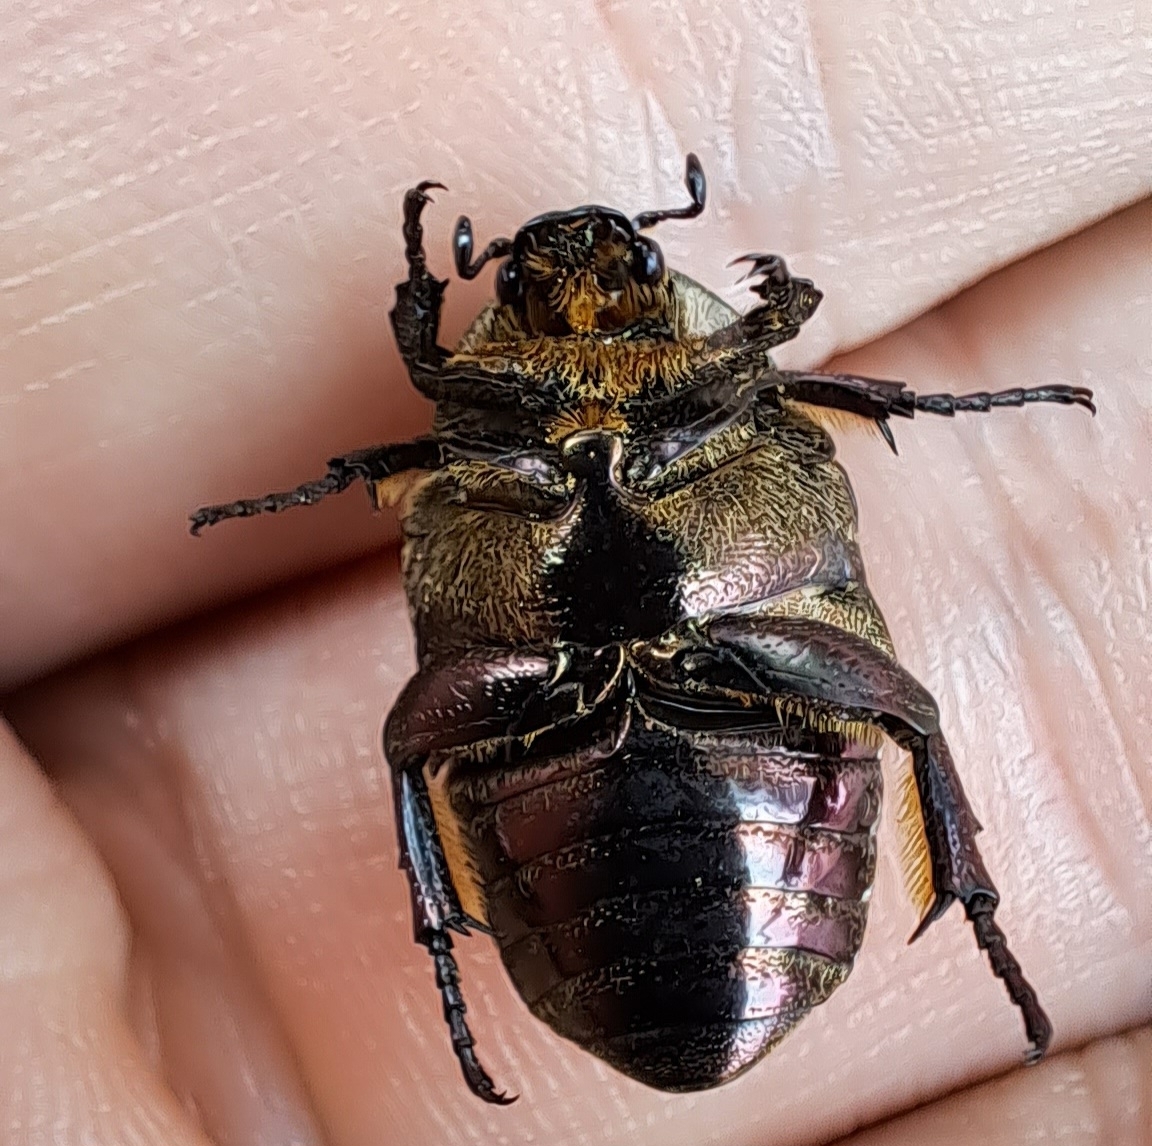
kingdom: Animalia
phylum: Arthropoda
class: Insecta
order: Coleoptera
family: Scarabaeidae
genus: Protaetia
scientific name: Protaetia cuprea
